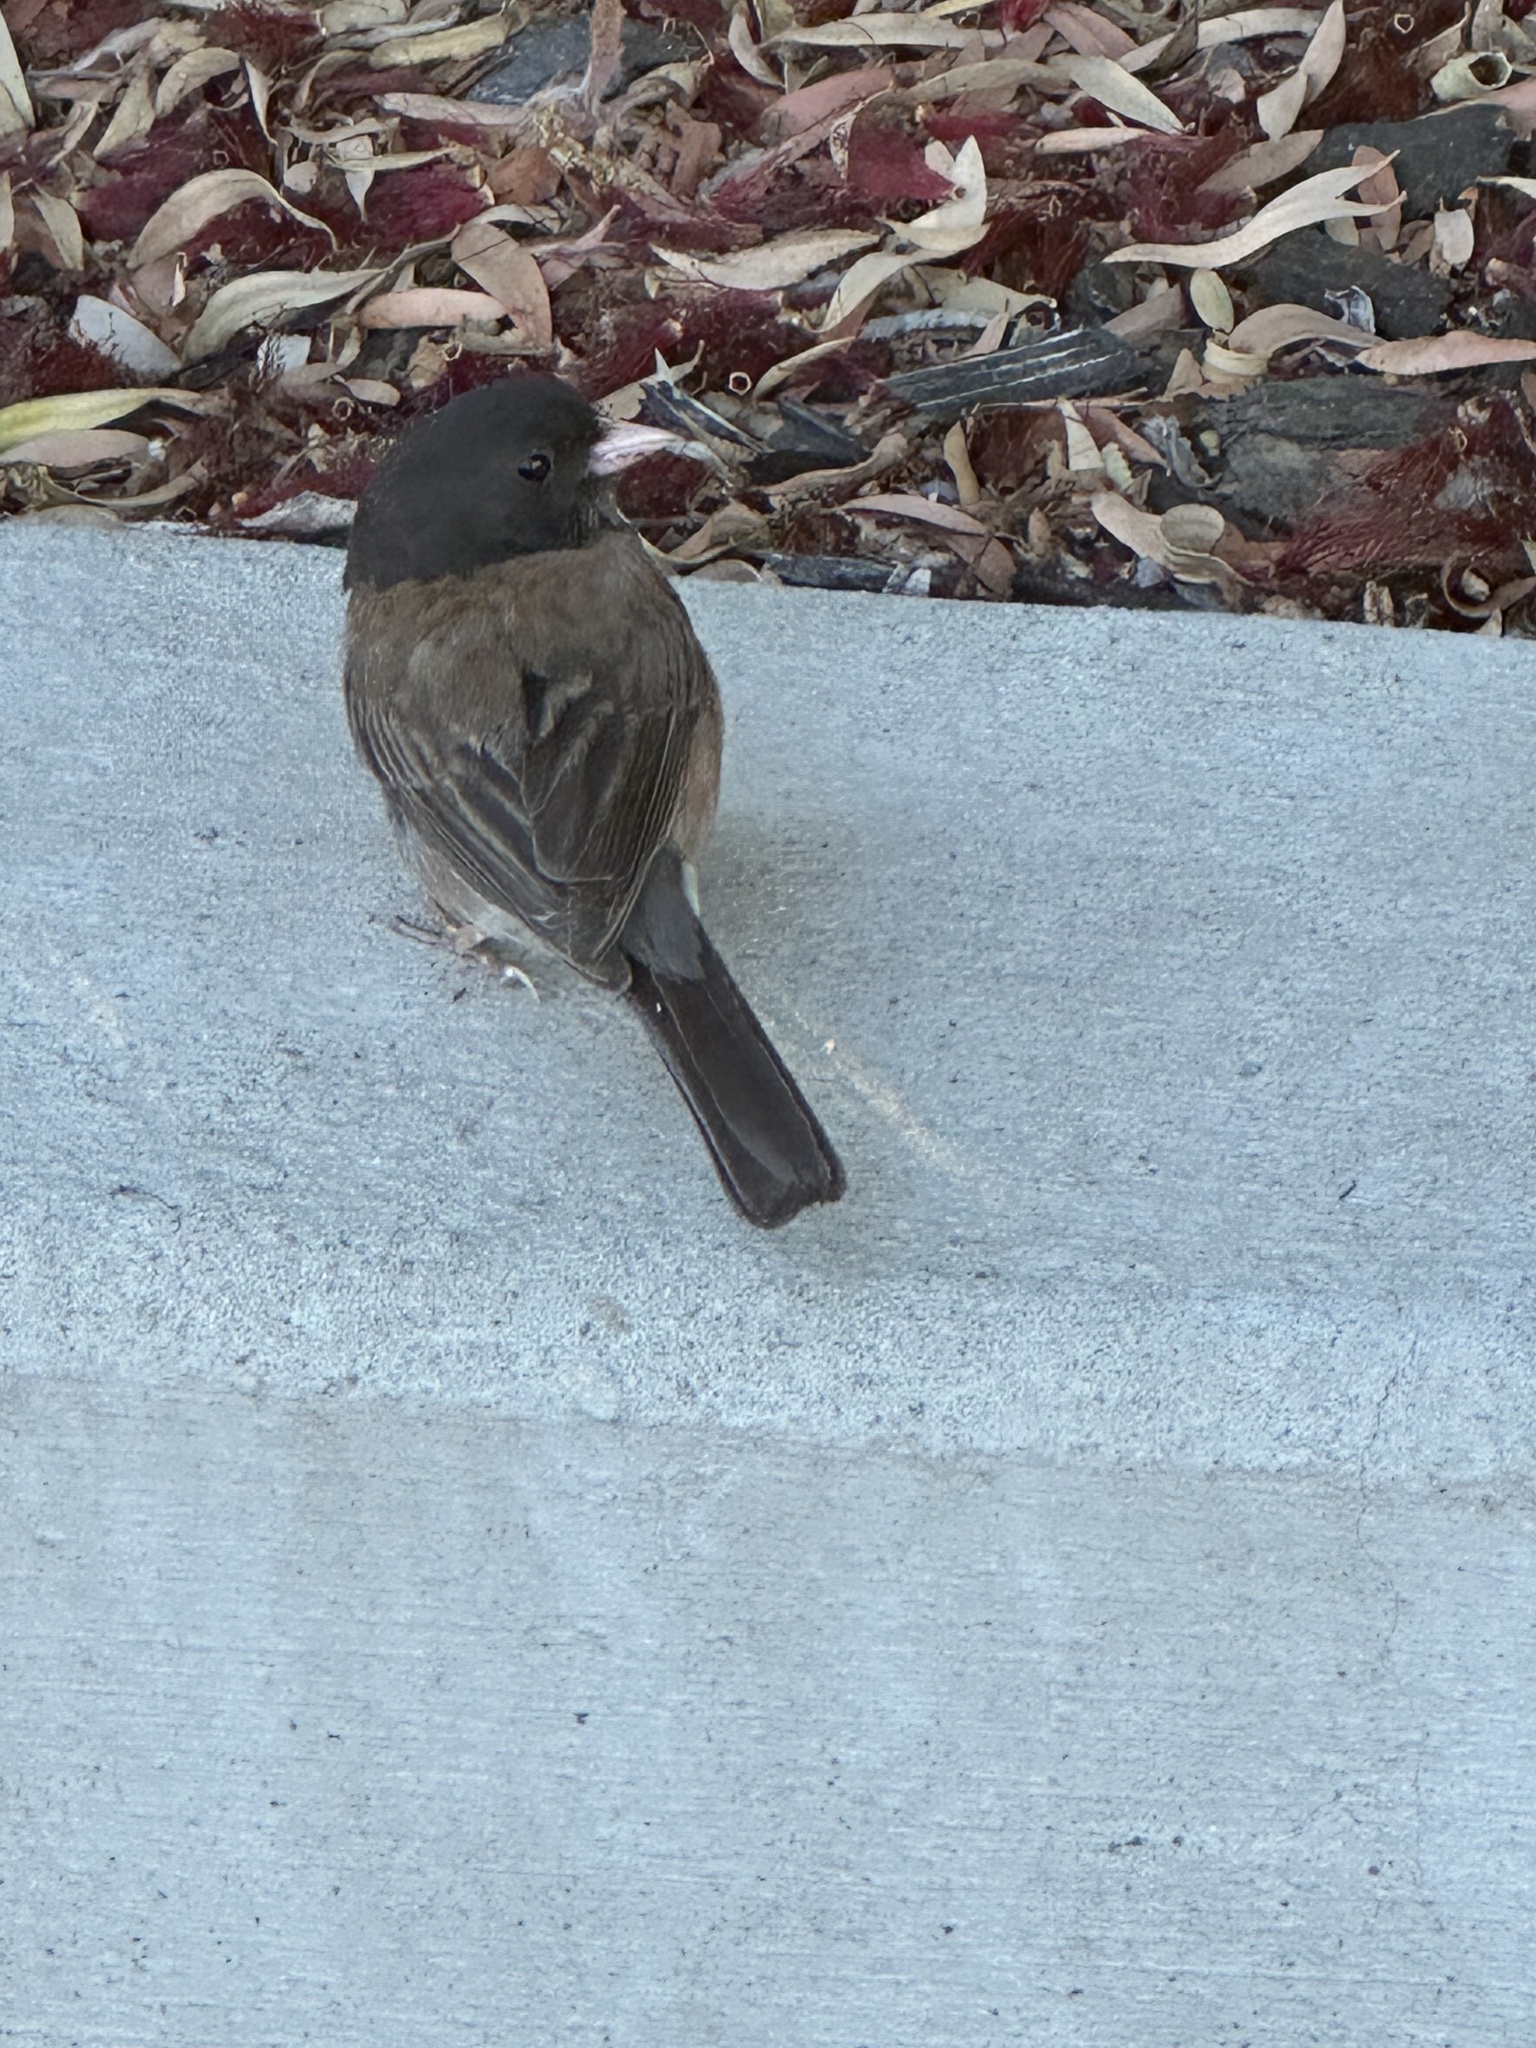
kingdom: Animalia
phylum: Chordata
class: Aves
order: Passeriformes
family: Passerellidae
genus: Junco
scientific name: Junco hyemalis
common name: Dark-eyed junco
